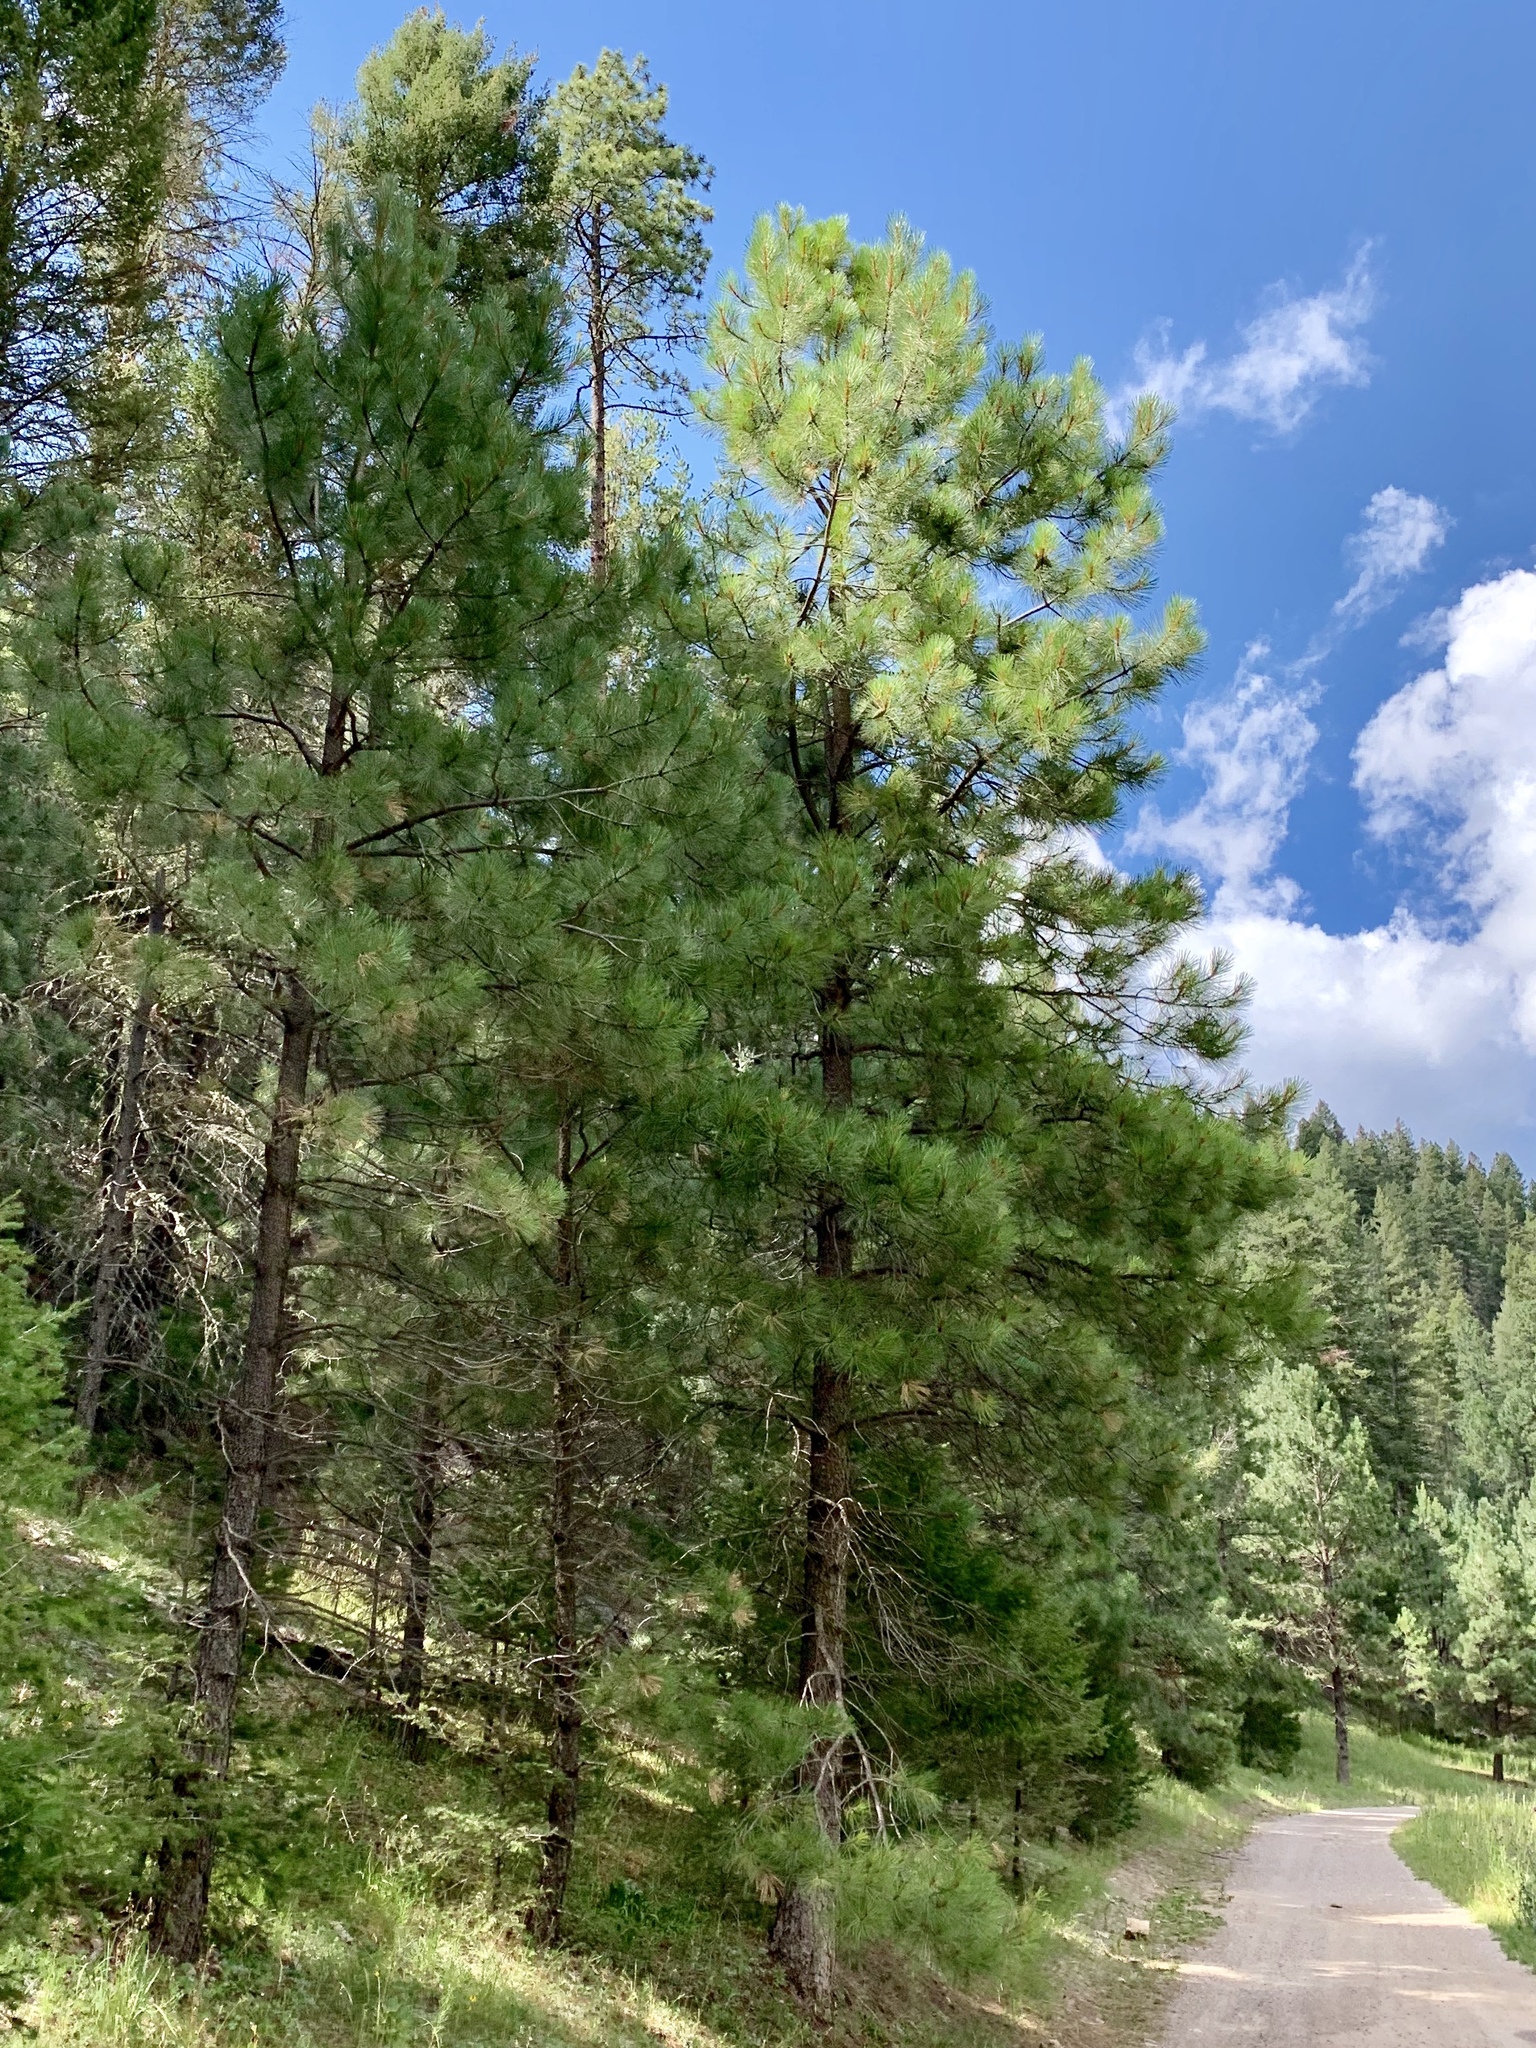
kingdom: Plantae
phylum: Tracheophyta
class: Pinopsida
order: Pinales
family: Pinaceae
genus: Pinus
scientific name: Pinus ponderosa
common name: Western yellow-pine
